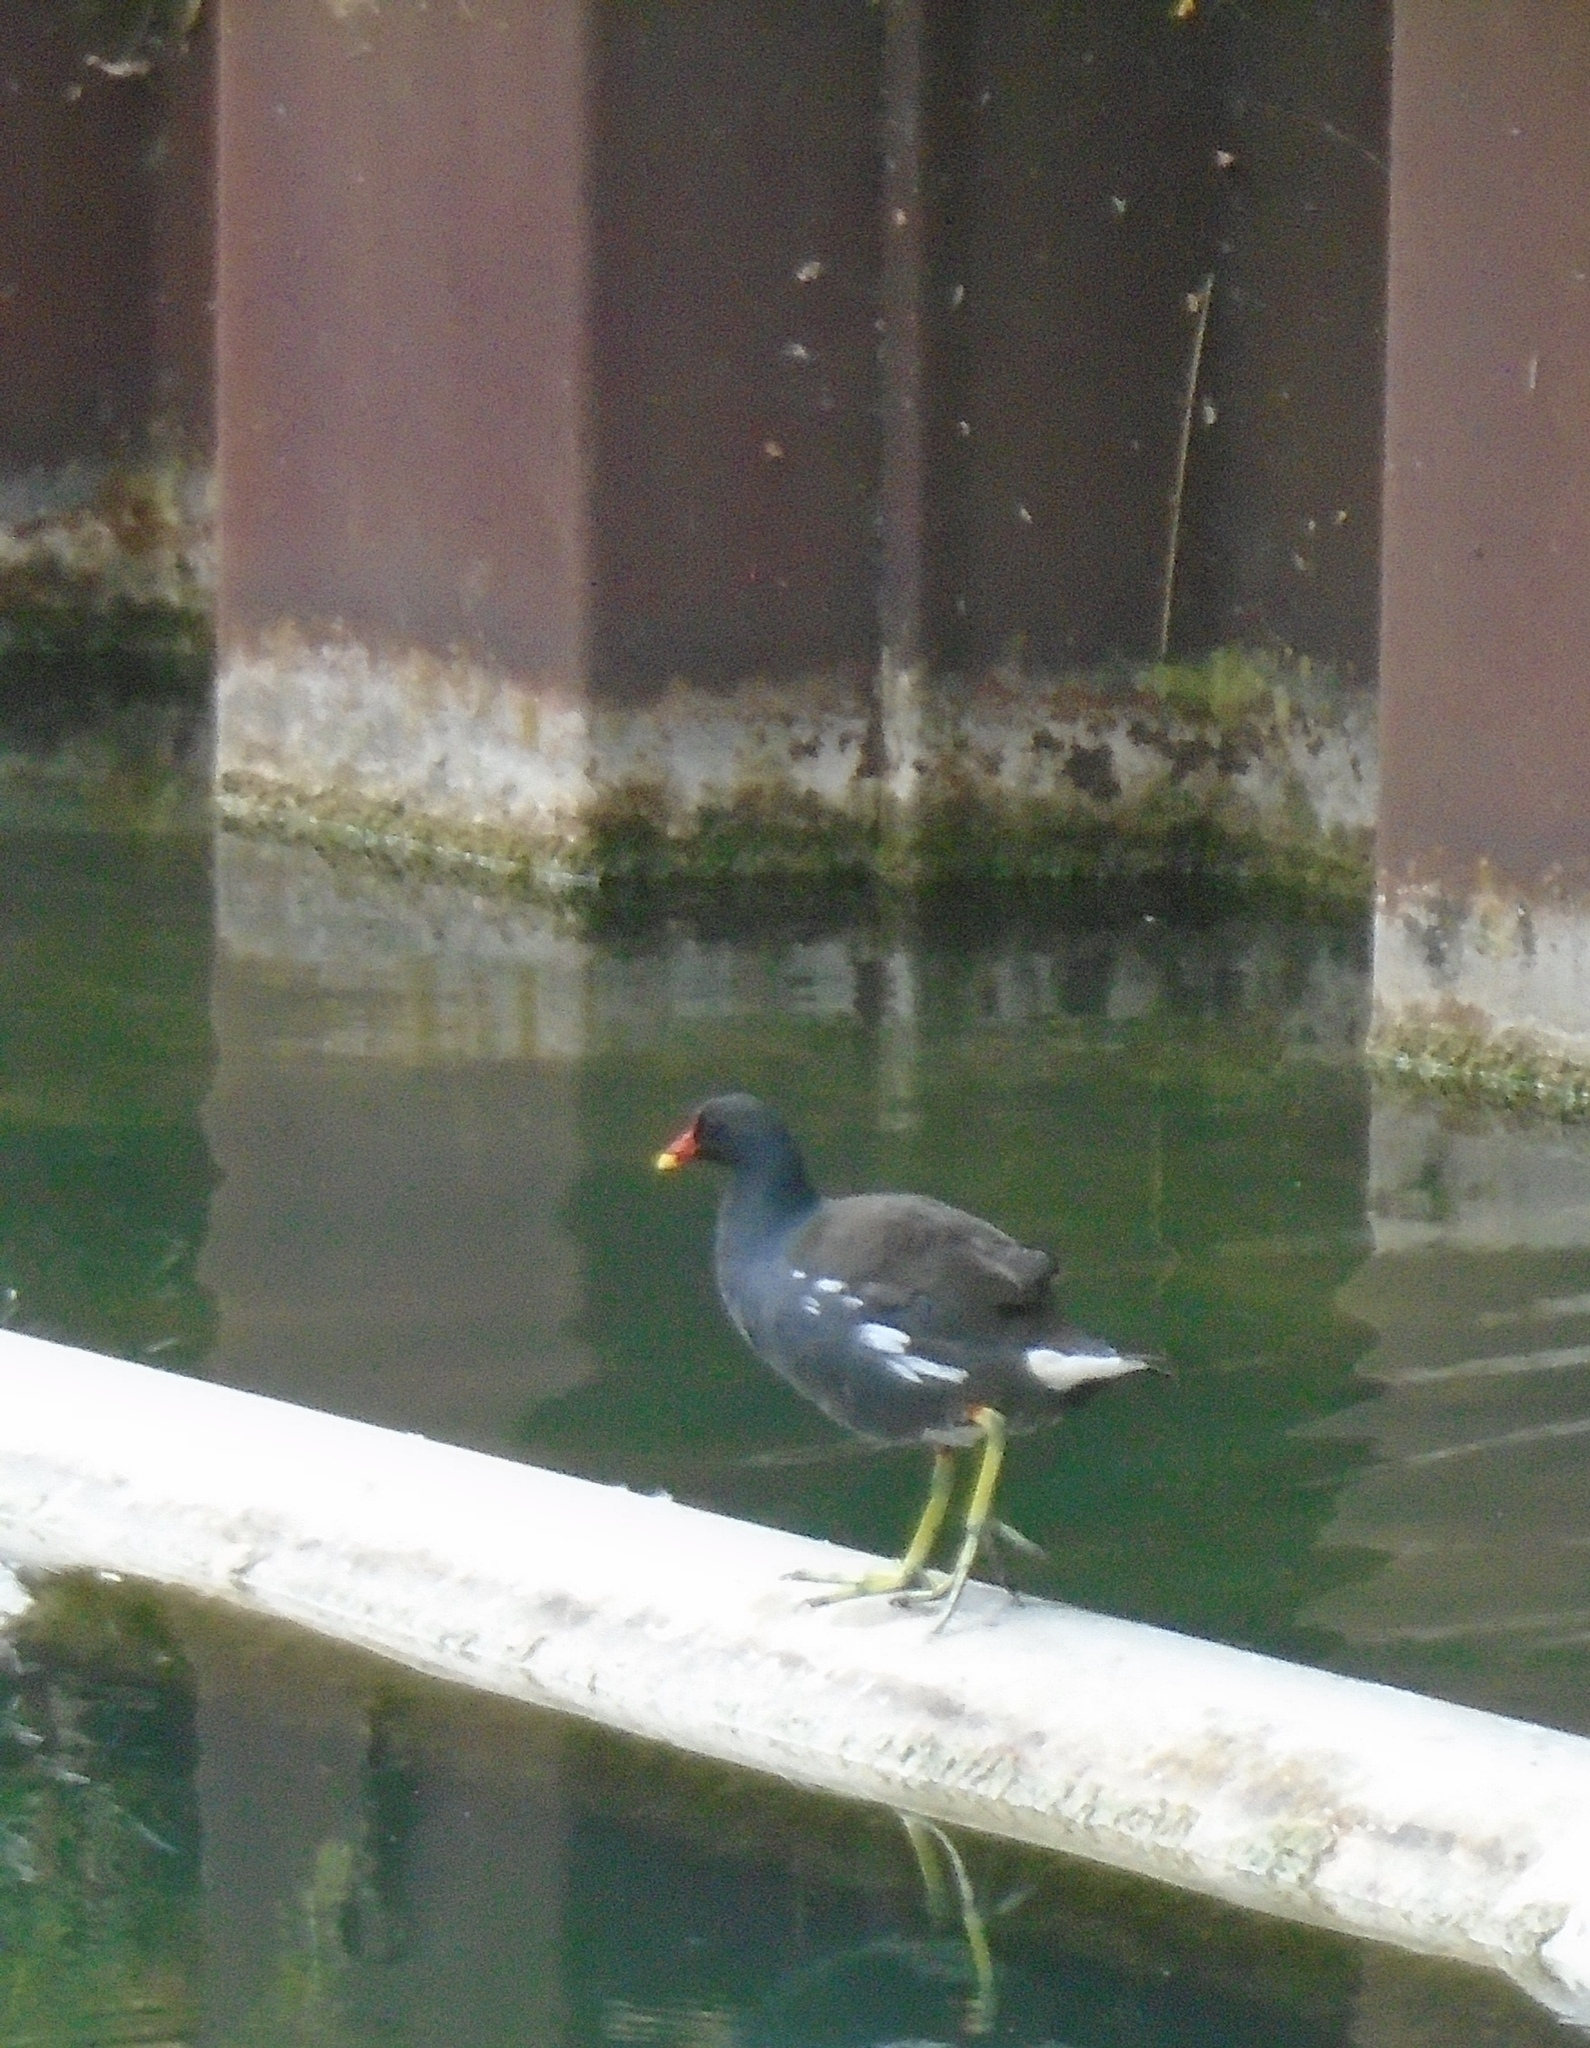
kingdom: Animalia
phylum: Chordata
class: Aves
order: Gruiformes
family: Rallidae
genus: Gallinula
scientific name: Gallinula chloropus
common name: Common moorhen
